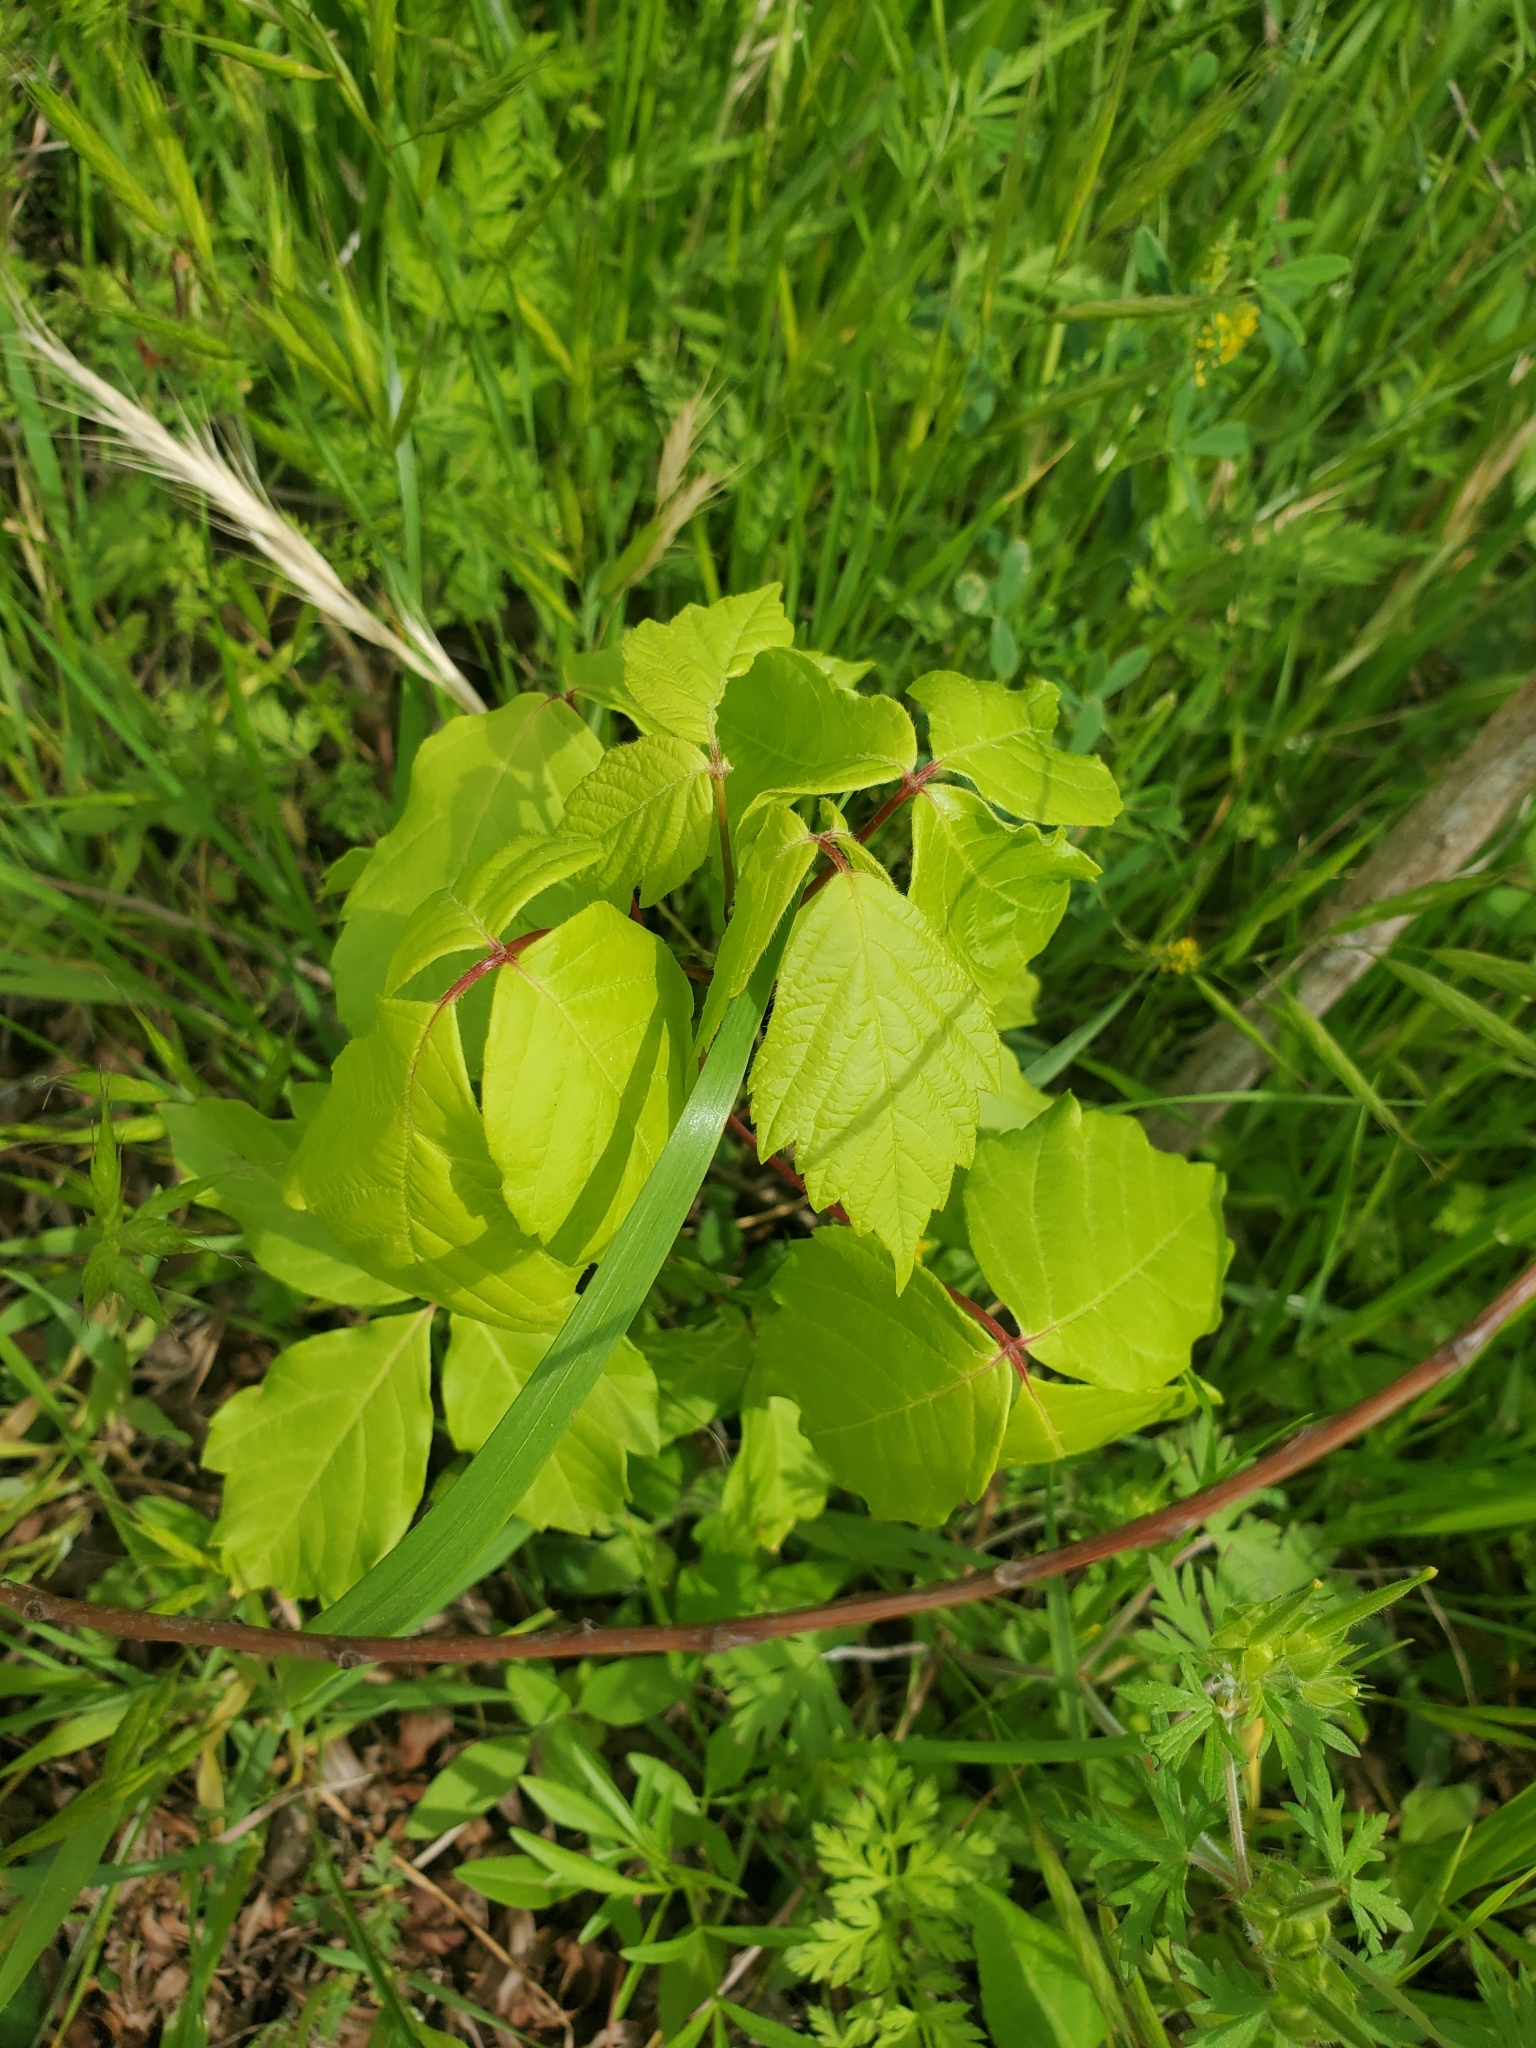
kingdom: Plantae
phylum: Tracheophyta
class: Magnoliopsida
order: Sapindales
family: Sapindaceae
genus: Acer
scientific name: Acer negundo
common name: Ashleaf maple
